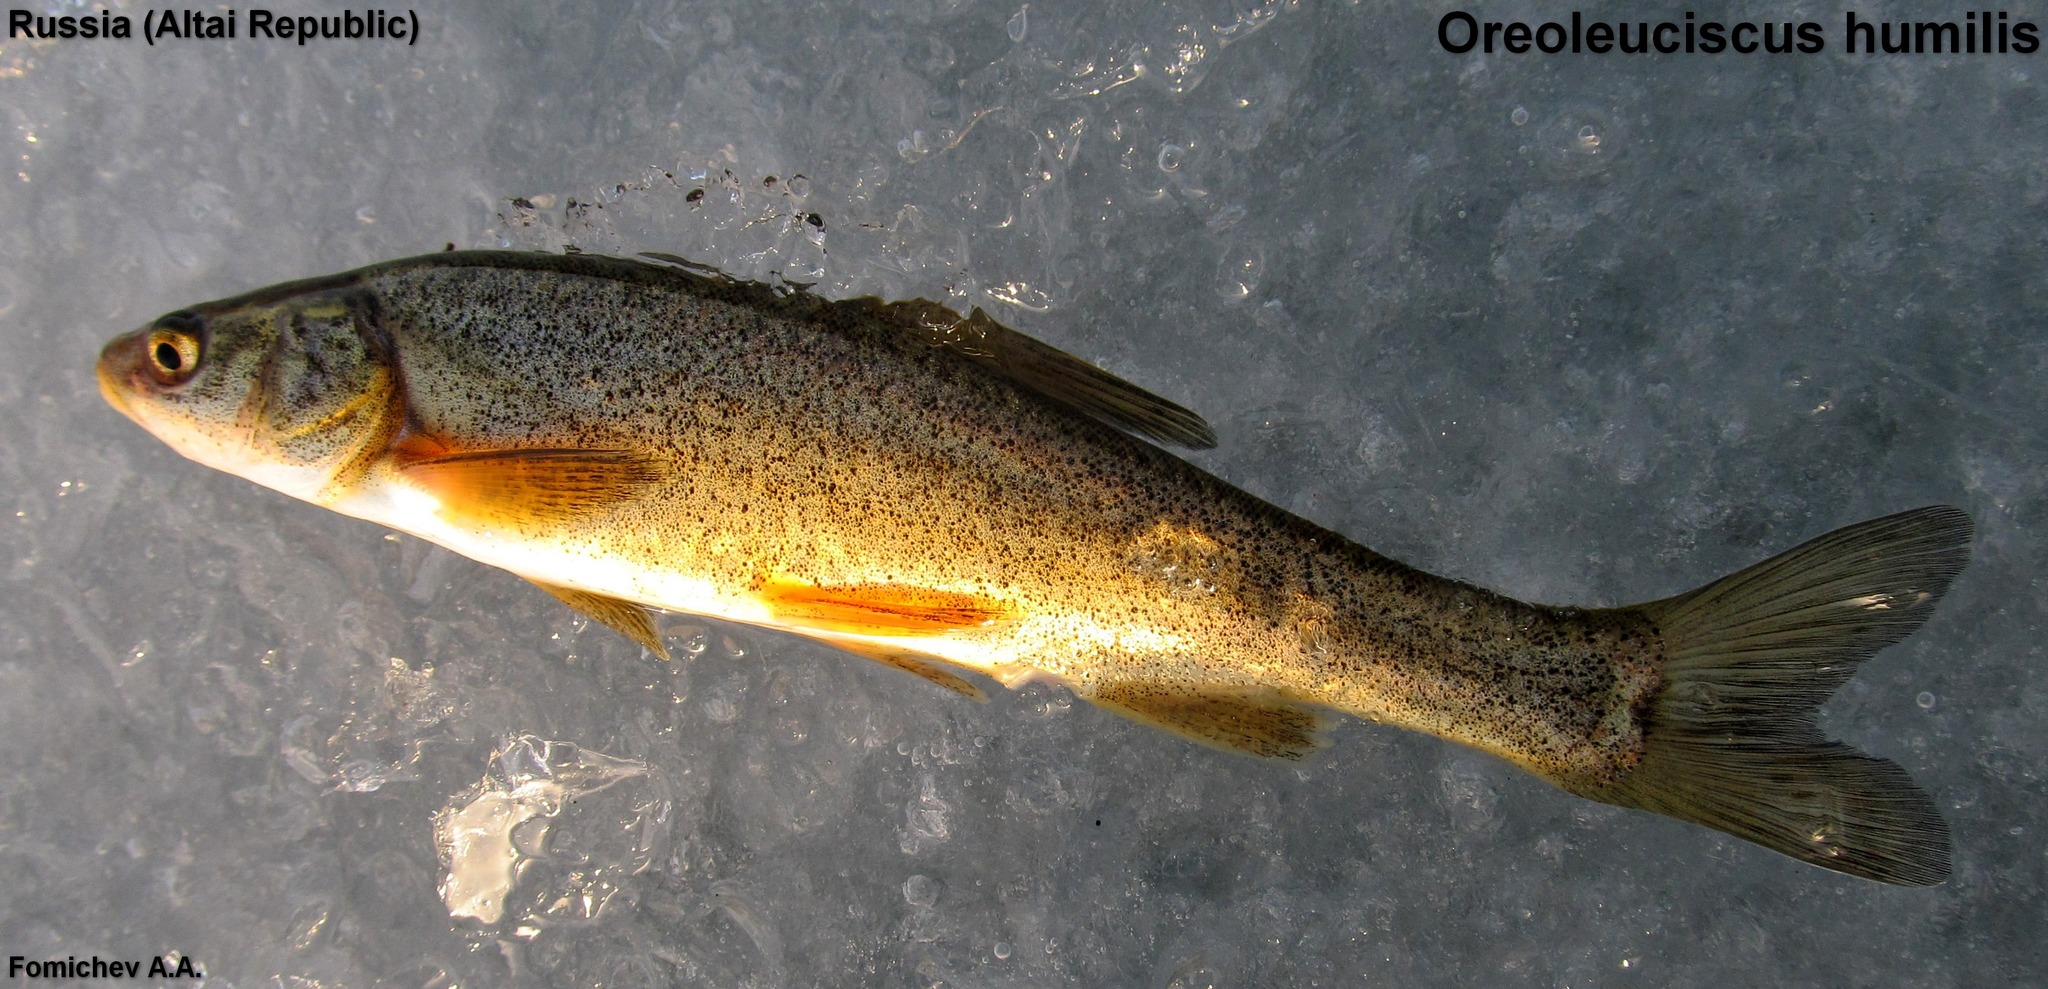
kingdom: Animalia
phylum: Chordata
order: Cypriniformes
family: Cyprinidae
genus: Oreoleuciscus
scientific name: Oreoleuciscus humilis
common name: Altaian dwarf osman
